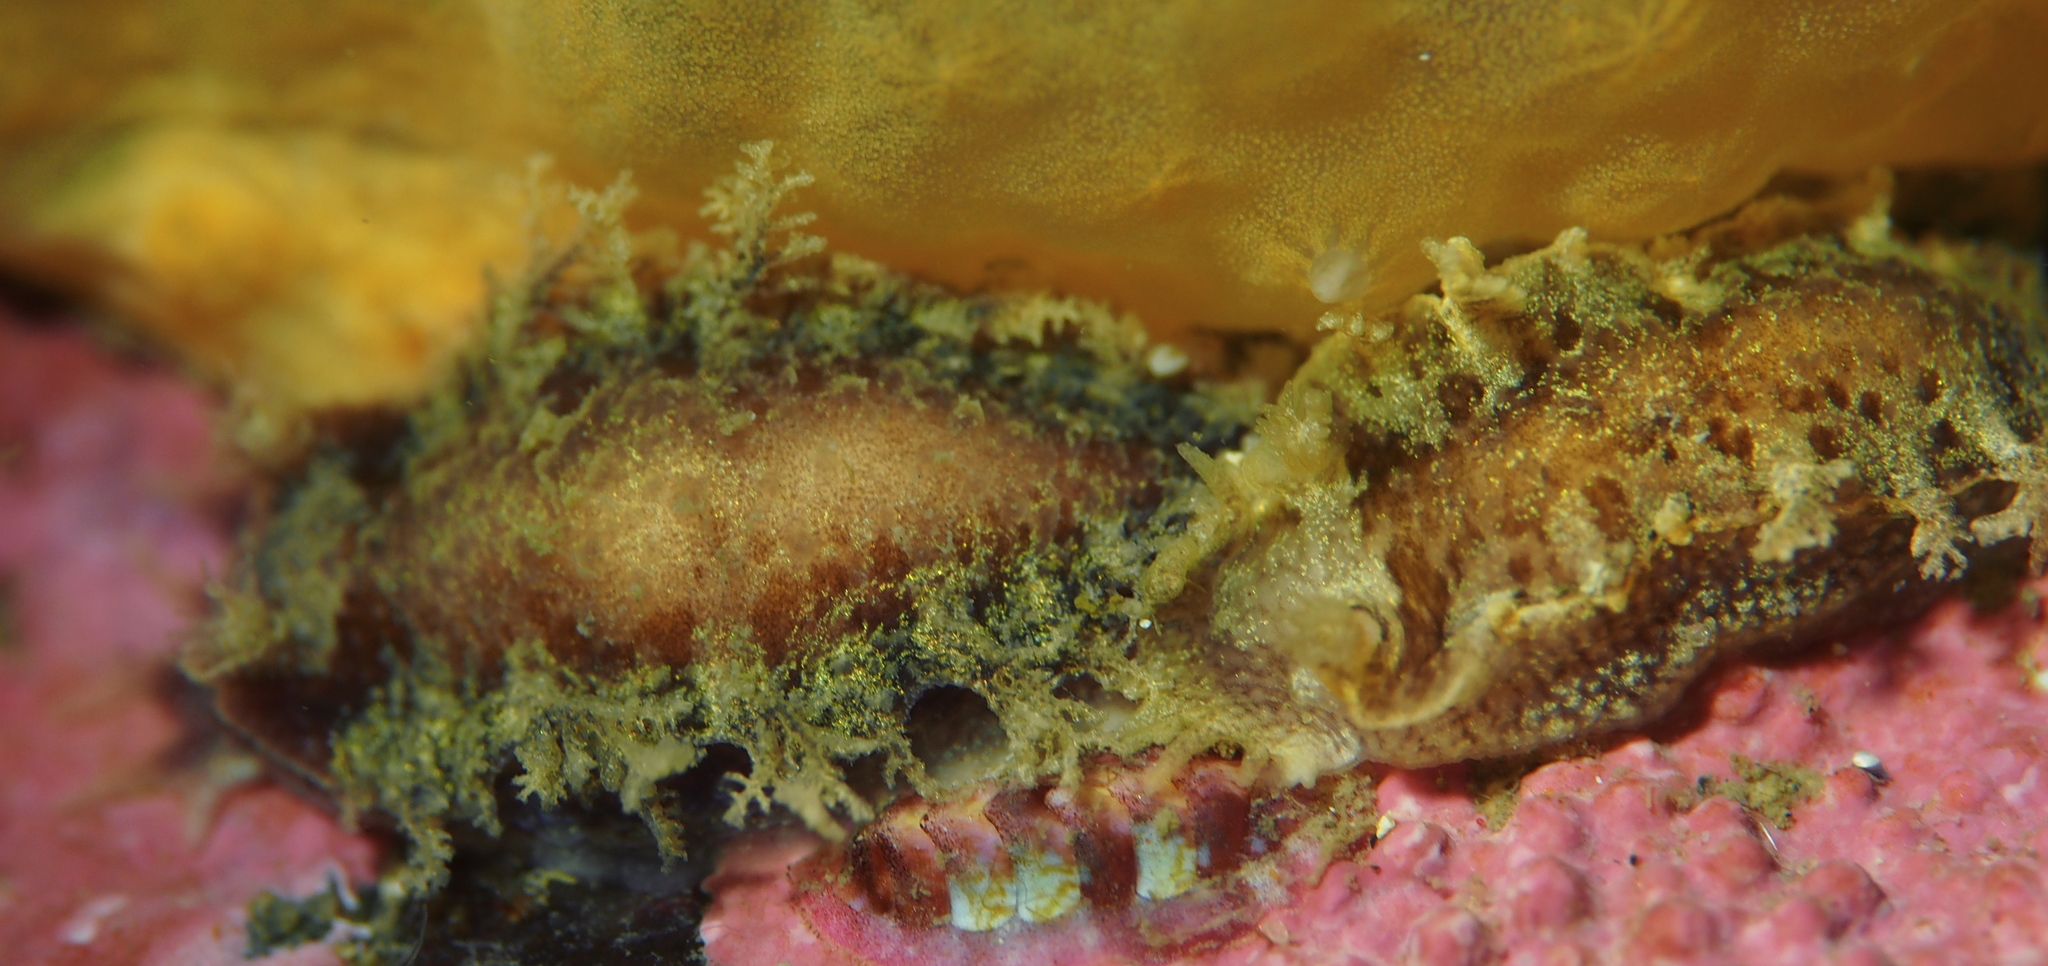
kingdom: Animalia
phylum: Mollusca
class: Gastropoda
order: Nudibranchia
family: Tritoniidae
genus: Duvaucelia
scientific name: Duvaucelia plebeia
